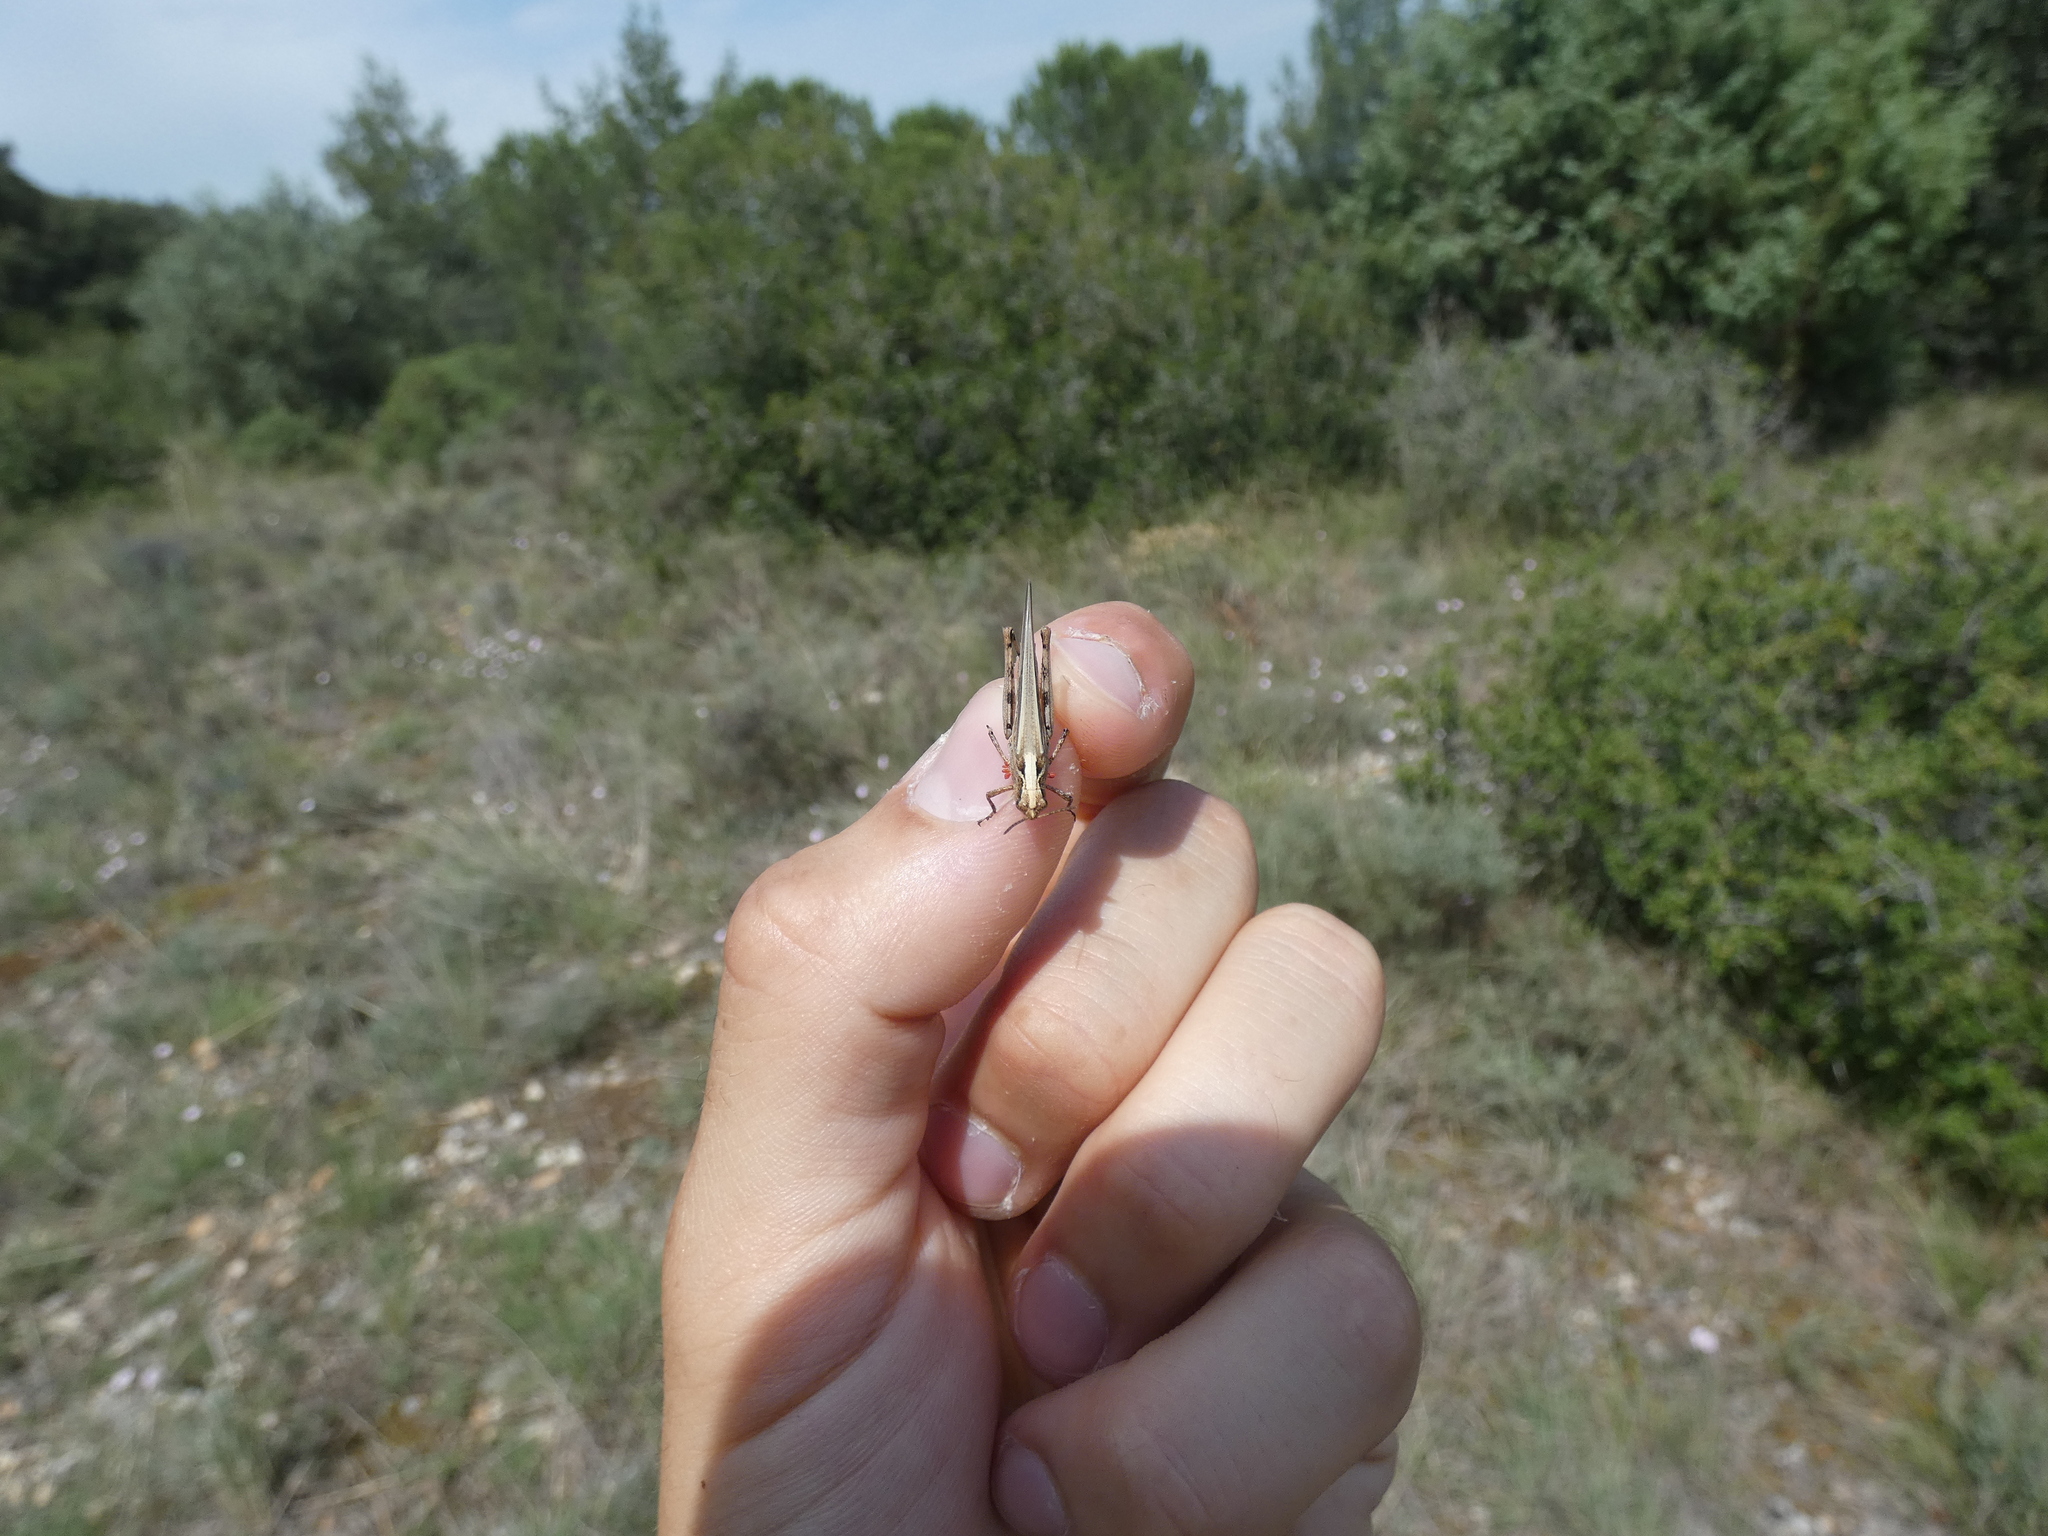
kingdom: Animalia
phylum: Arthropoda
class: Insecta
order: Orthoptera
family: Acrididae
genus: Aiolopus
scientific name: Aiolopus puissanti
